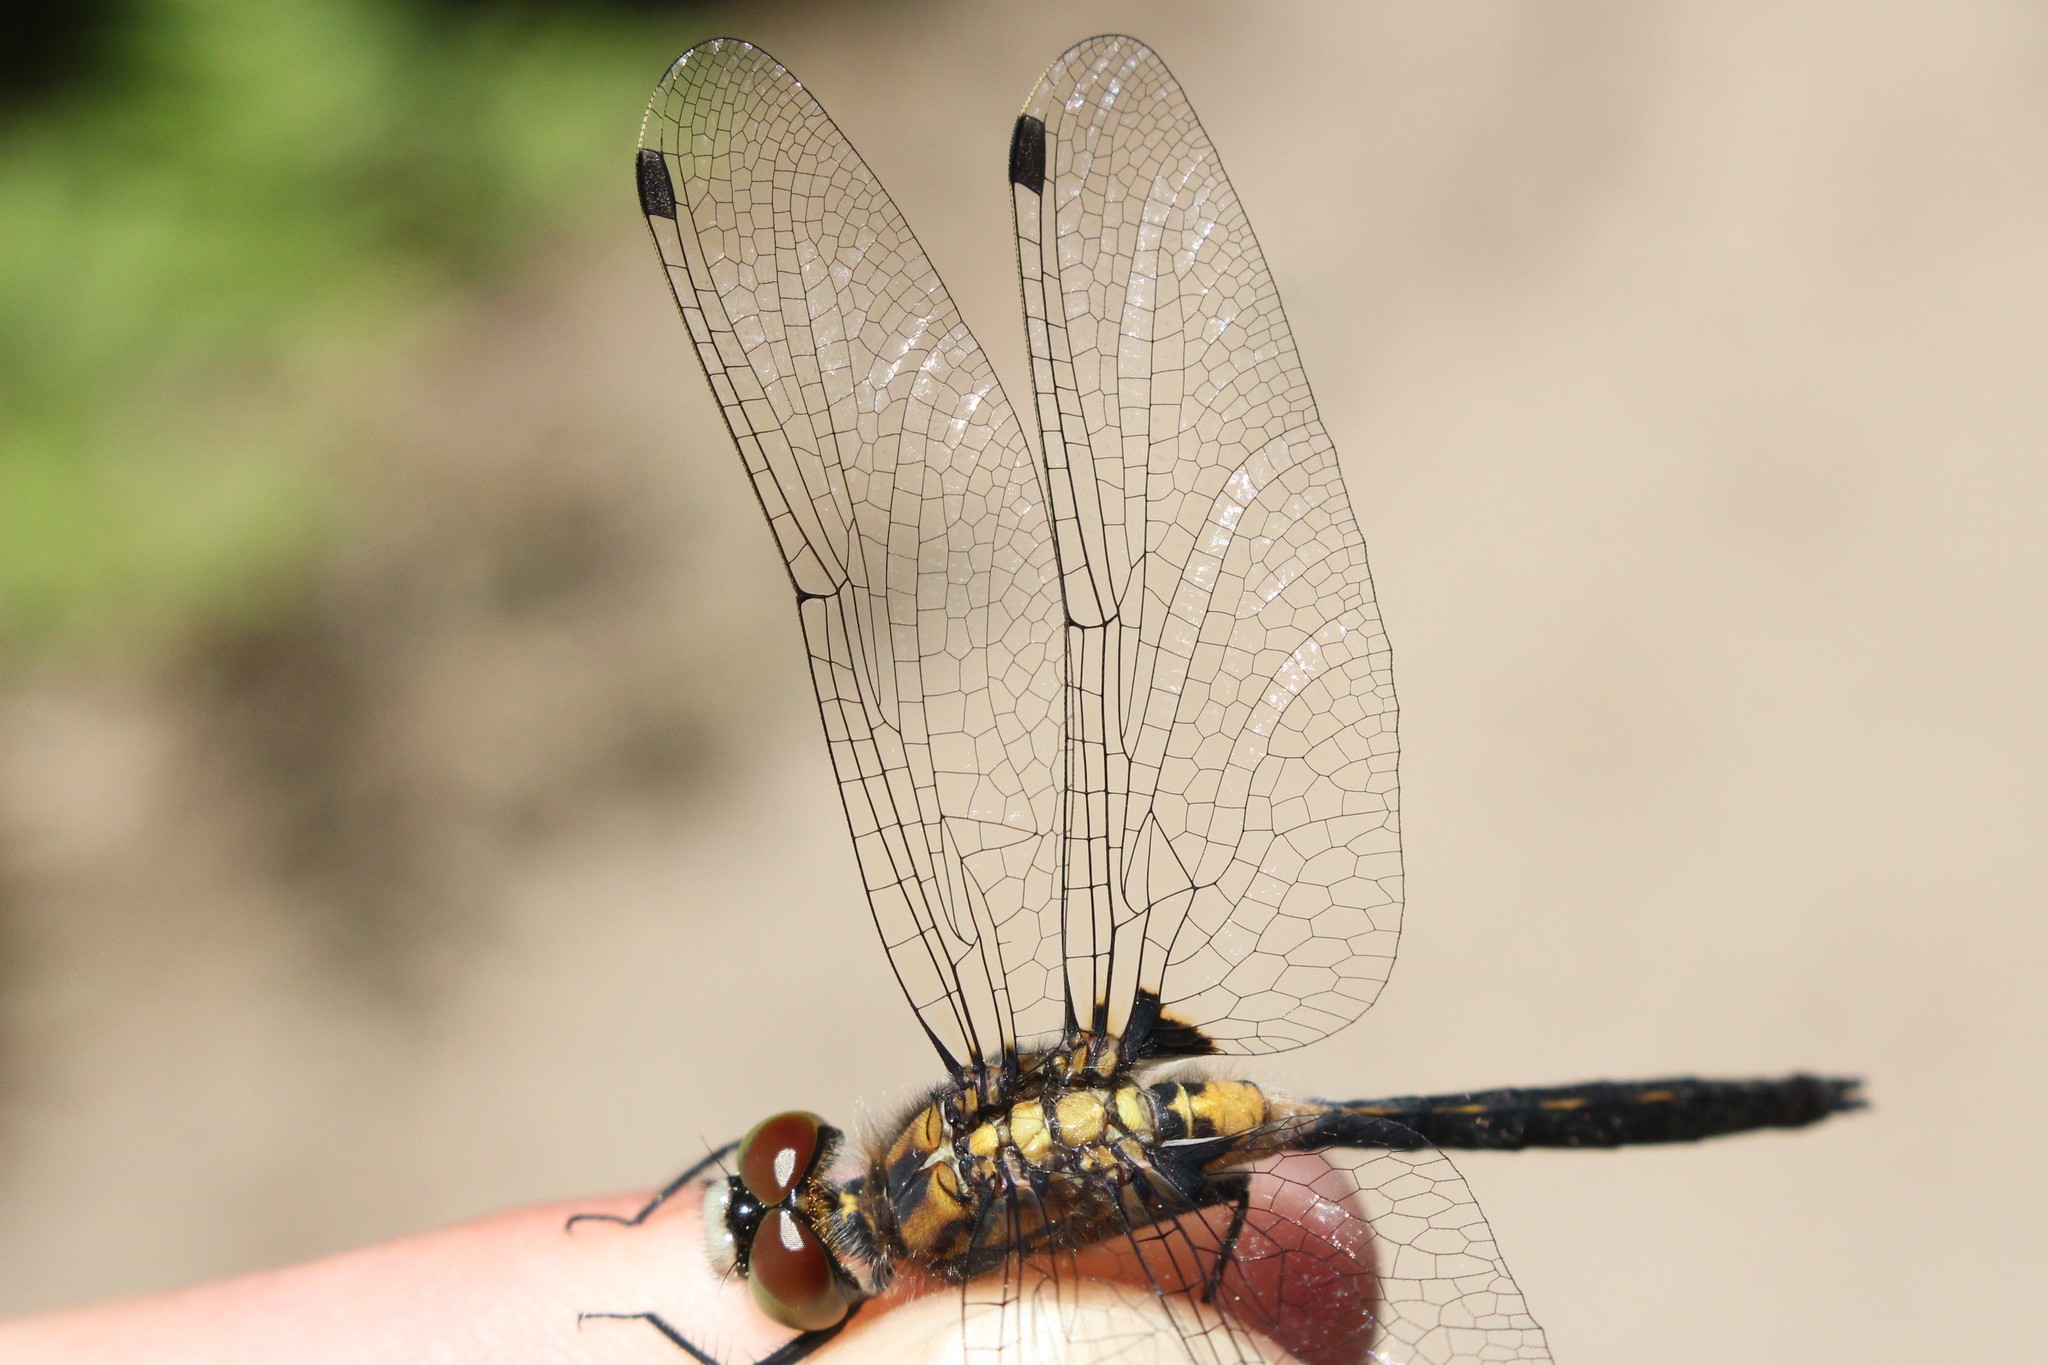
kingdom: Animalia
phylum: Arthropoda
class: Insecta
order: Odonata
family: Libellulidae
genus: Leucorrhinia
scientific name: Leucorrhinia proxima
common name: Belted whiteface
